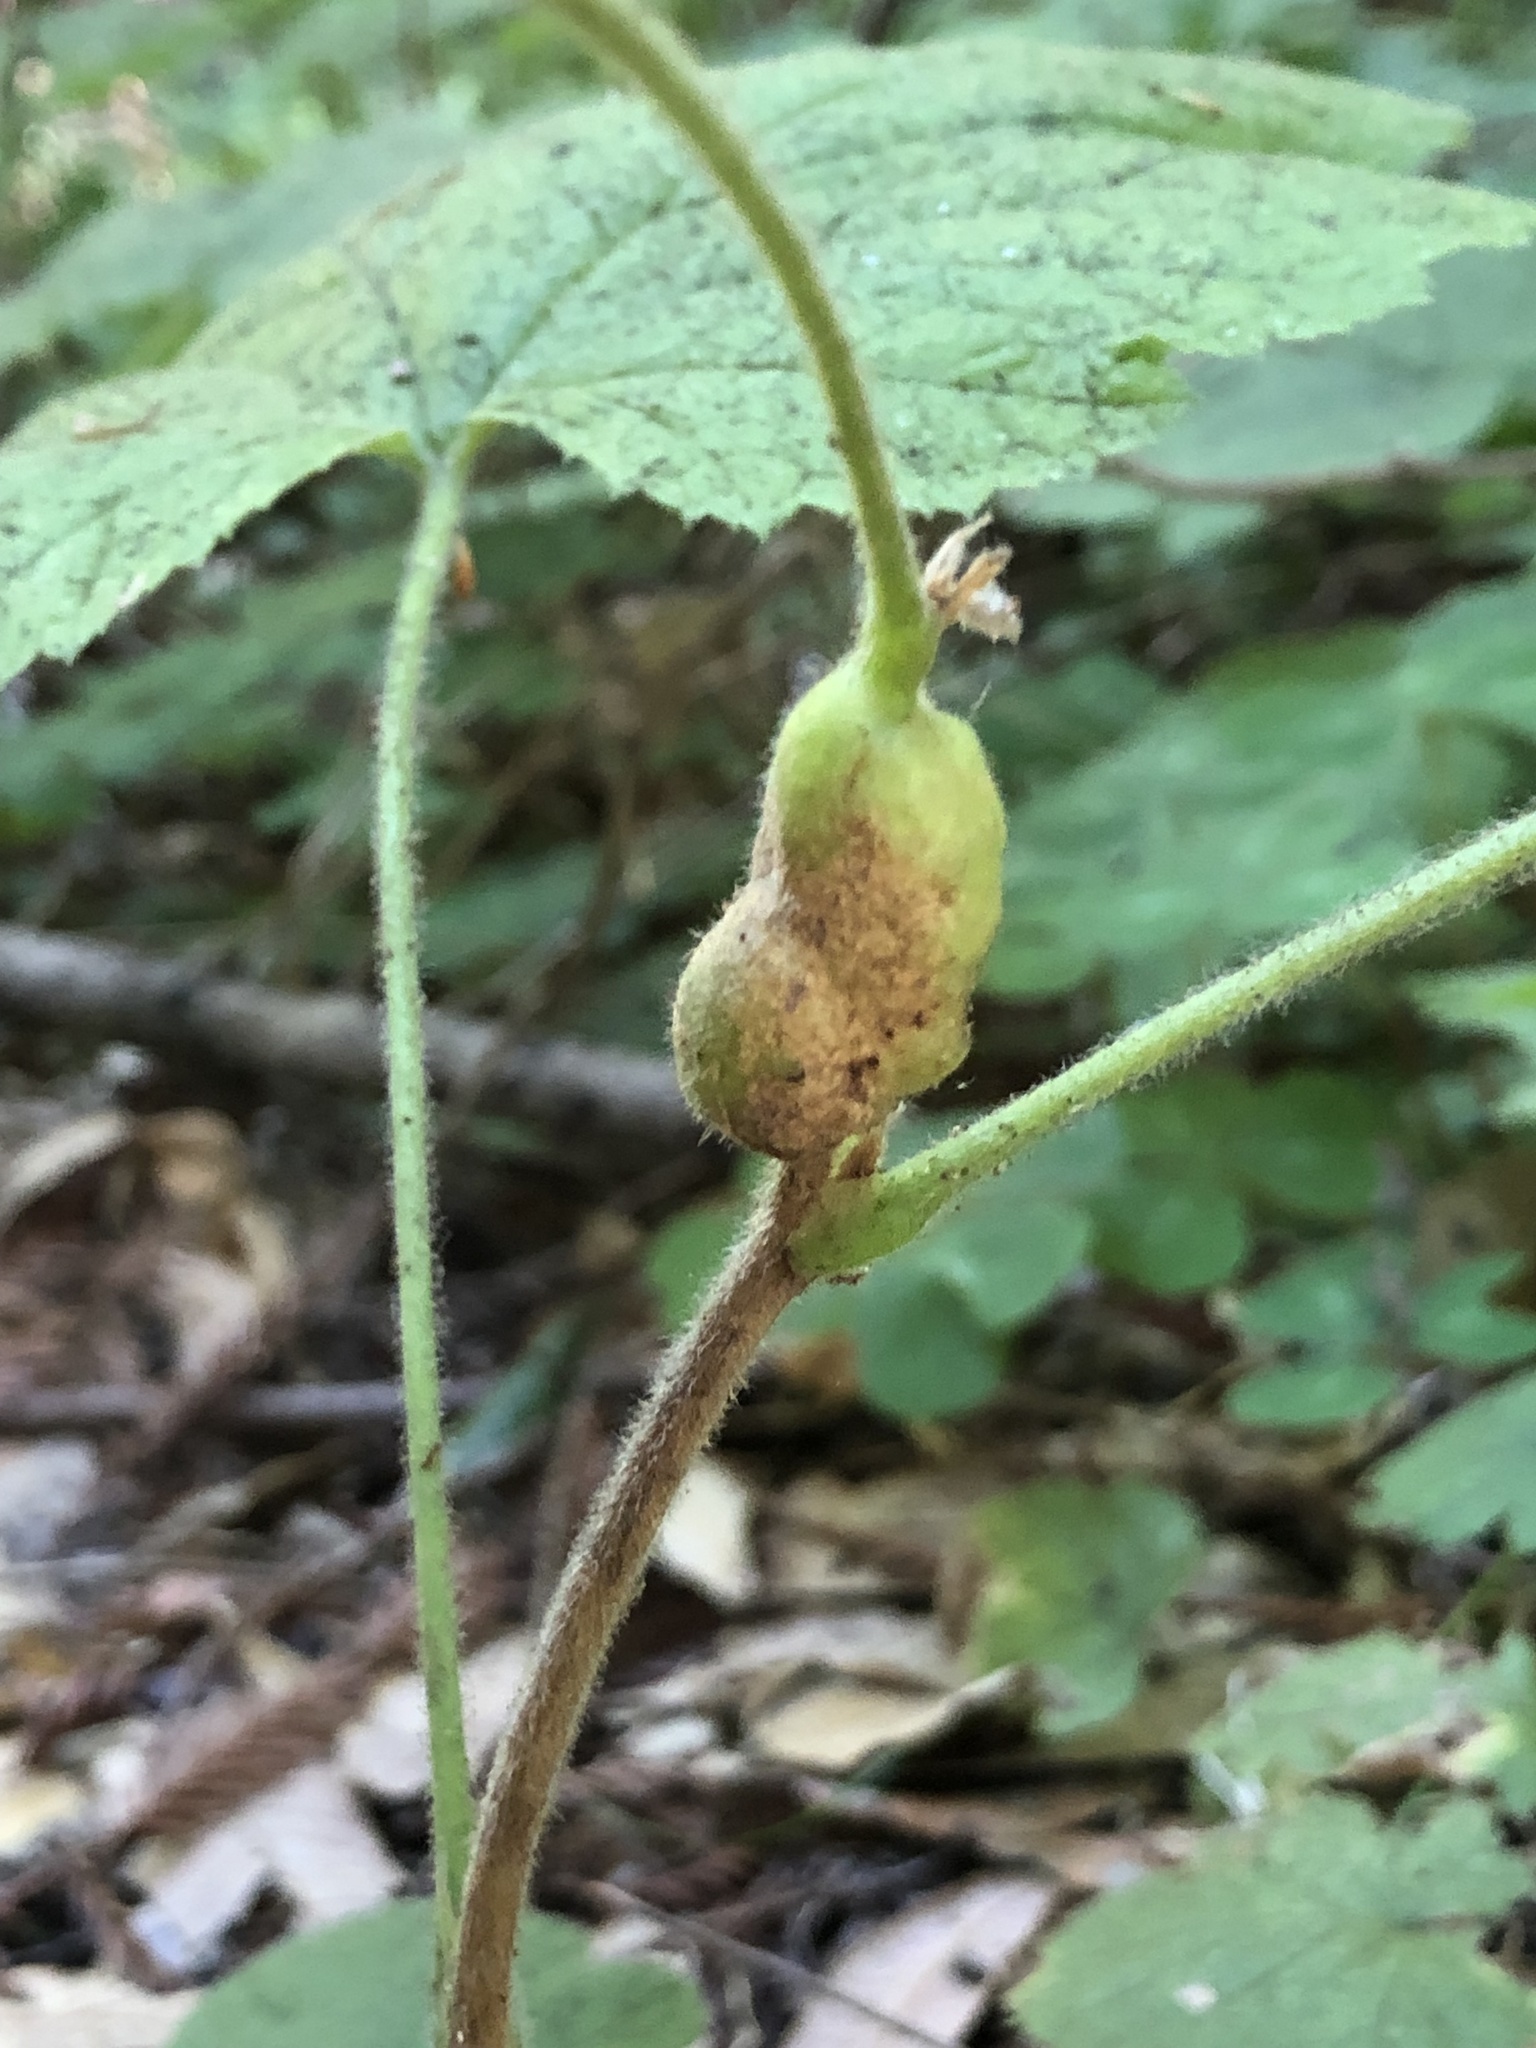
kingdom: Animalia
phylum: Arthropoda
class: Insecta
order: Hymenoptera
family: Cynipidae
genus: Diastrophus
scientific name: Diastrophus
